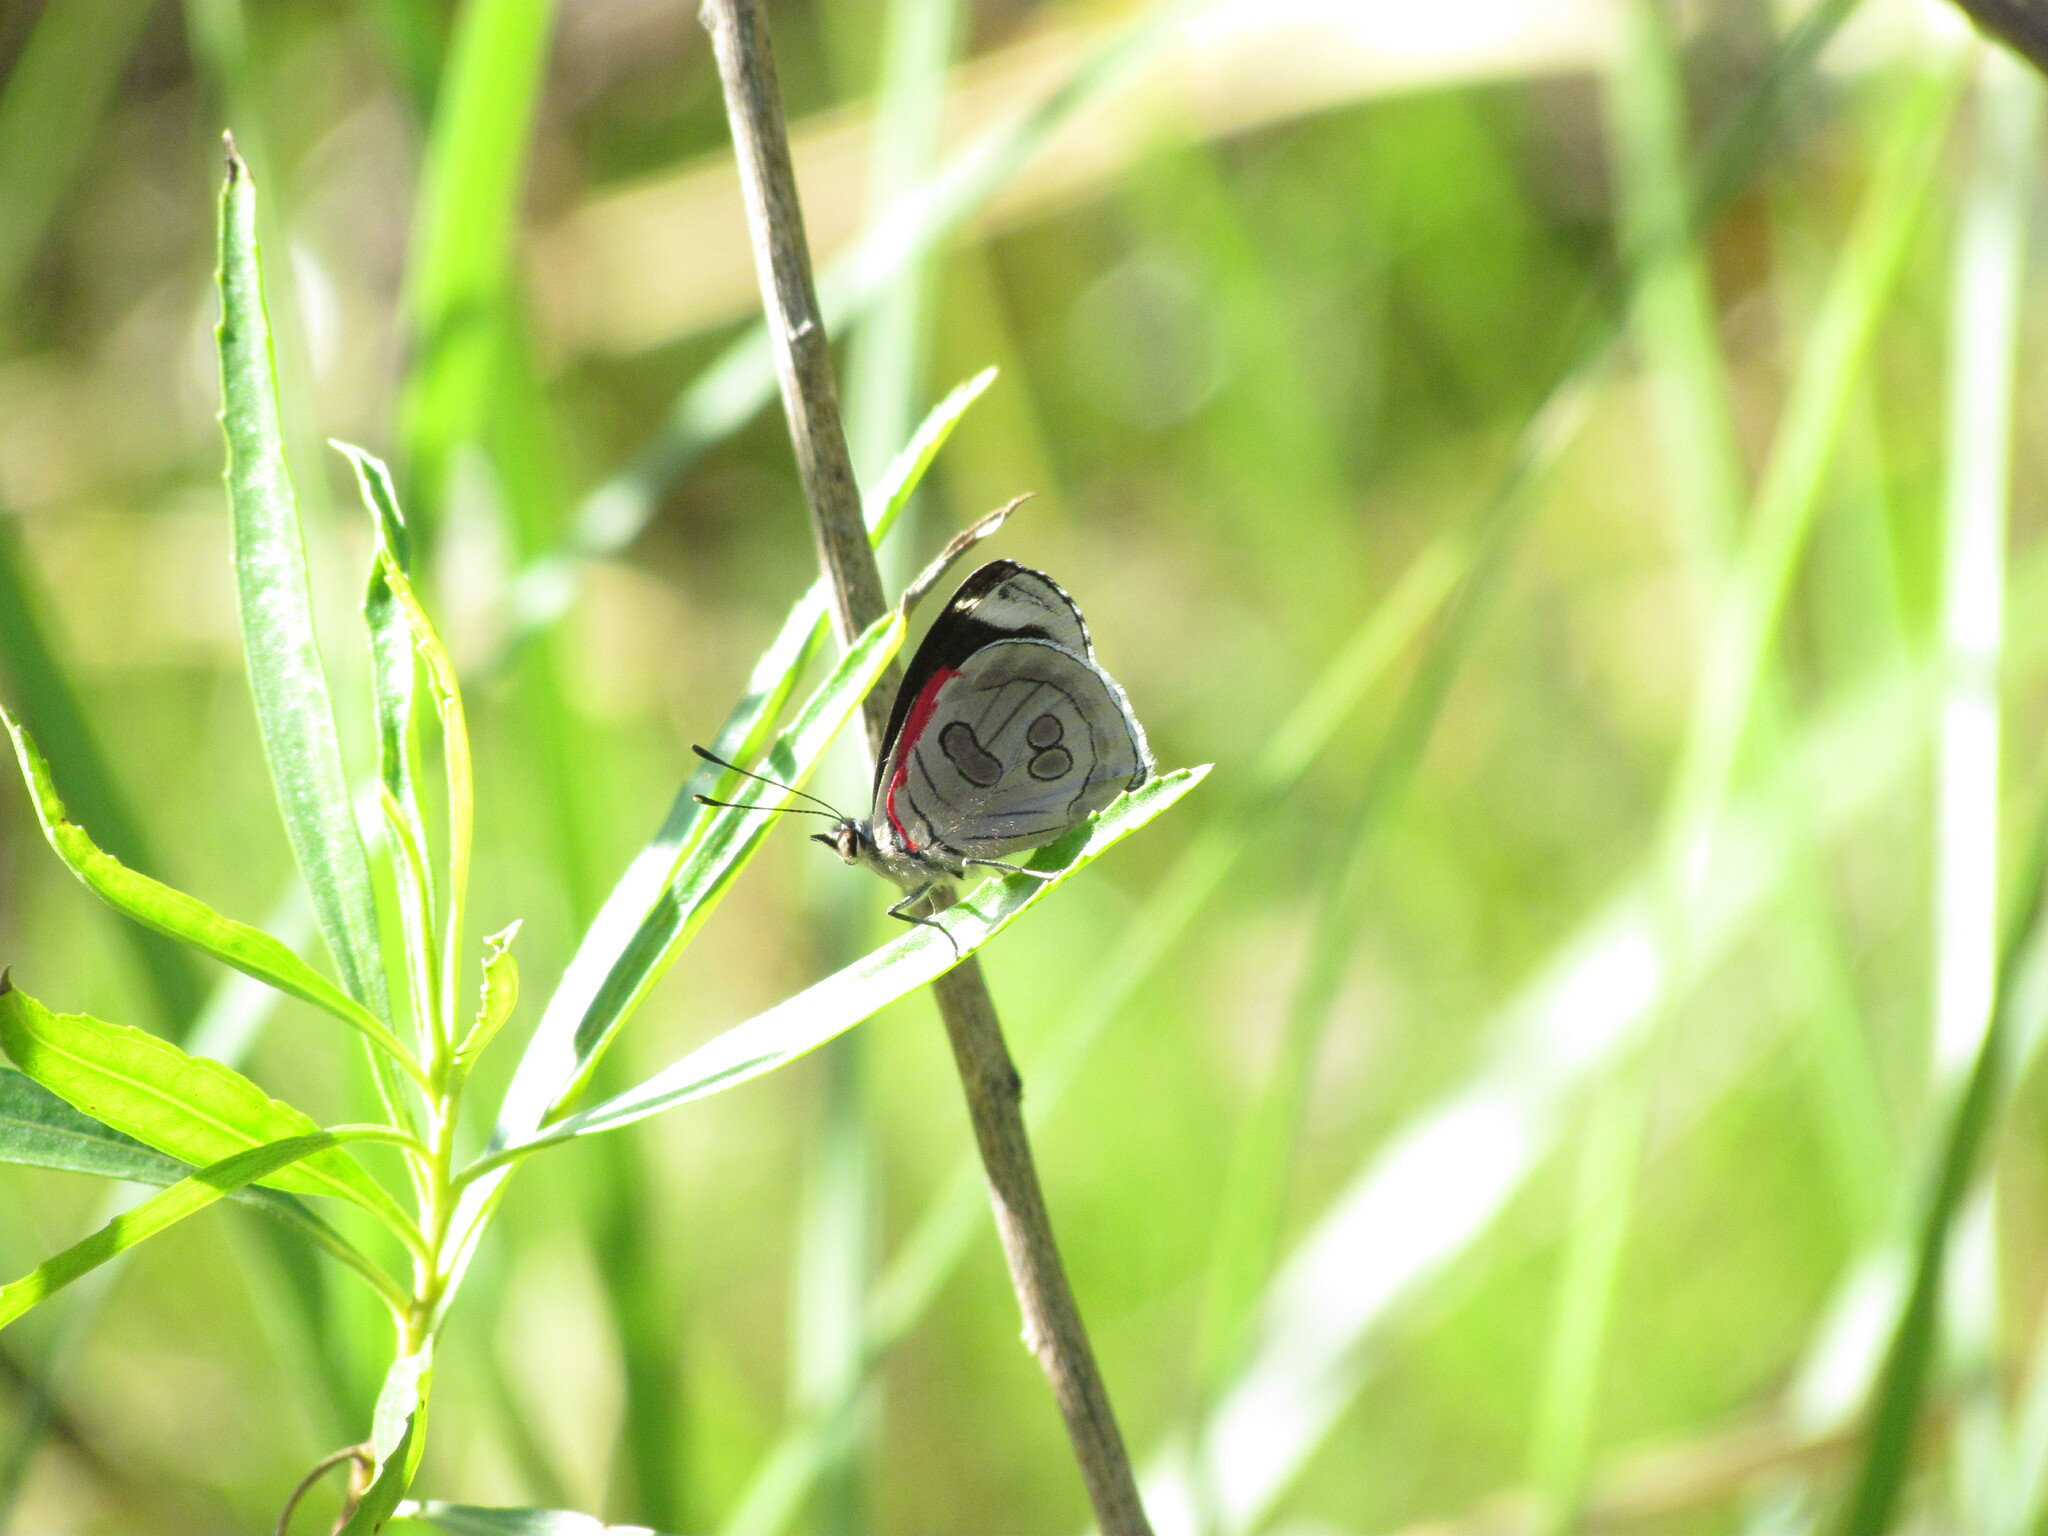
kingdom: Animalia
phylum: Arthropoda
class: Insecta
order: Lepidoptera
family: Nymphalidae
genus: Diaethria
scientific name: Diaethria candrena
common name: Number eighty
